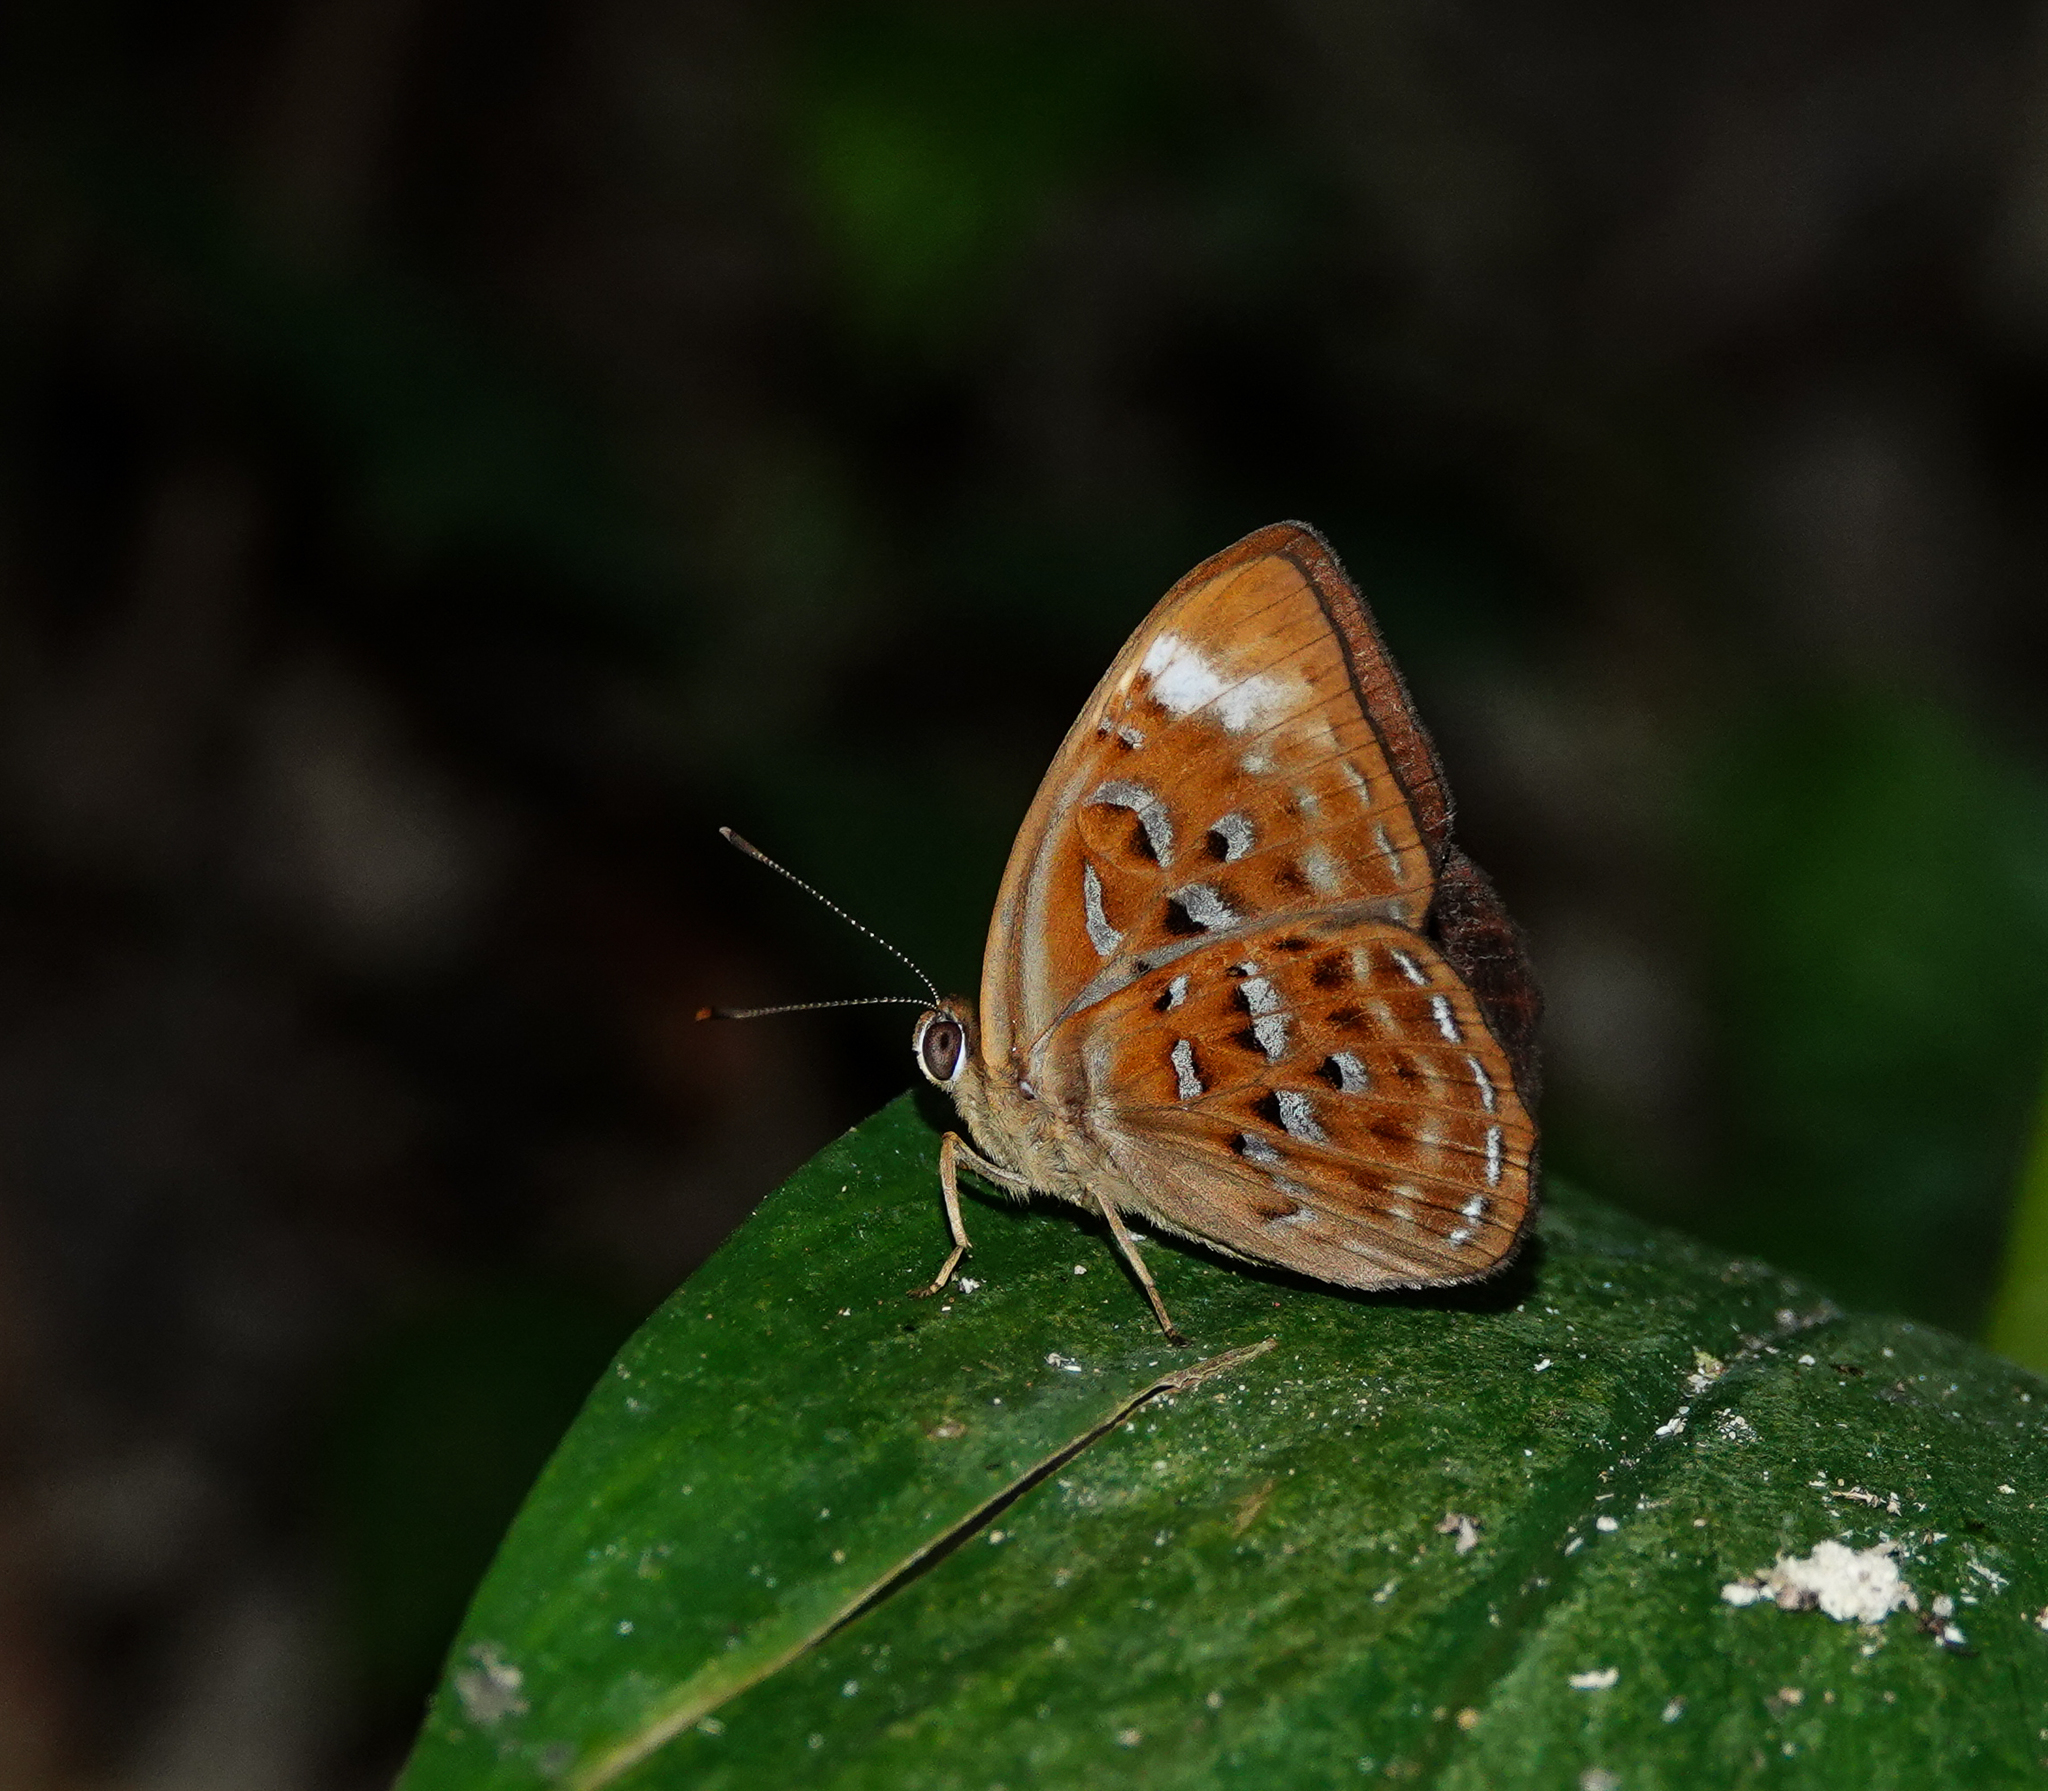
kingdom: Animalia
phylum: Arthropoda
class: Insecta
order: Lepidoptera
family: Erebidae
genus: Dysschema
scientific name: Dysschema
